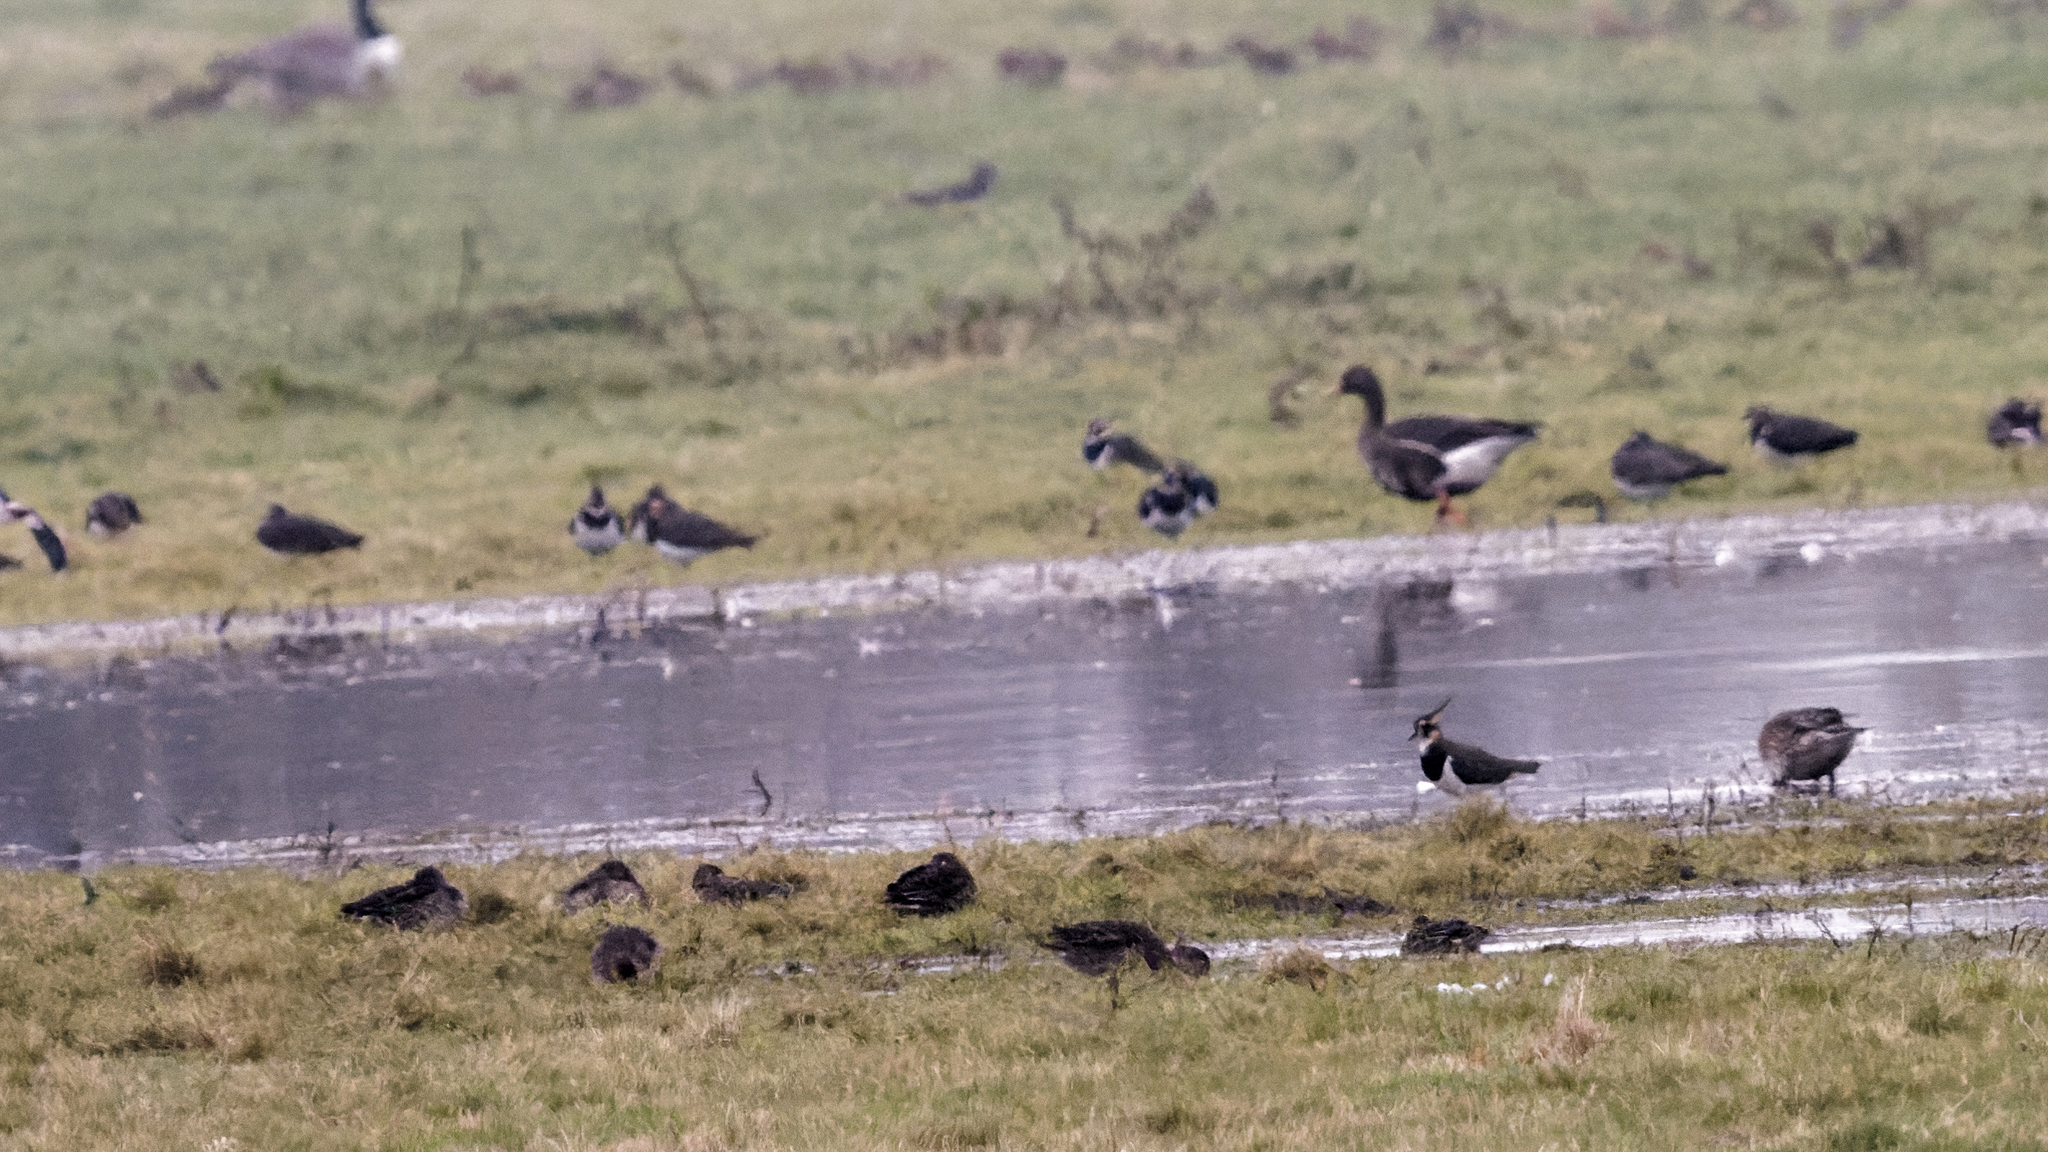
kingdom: Animalia
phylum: Chordata
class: Aves
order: Anseriformes
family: Anatidae
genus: Anser
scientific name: Anser albifrons
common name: Greater white-fronted goose
